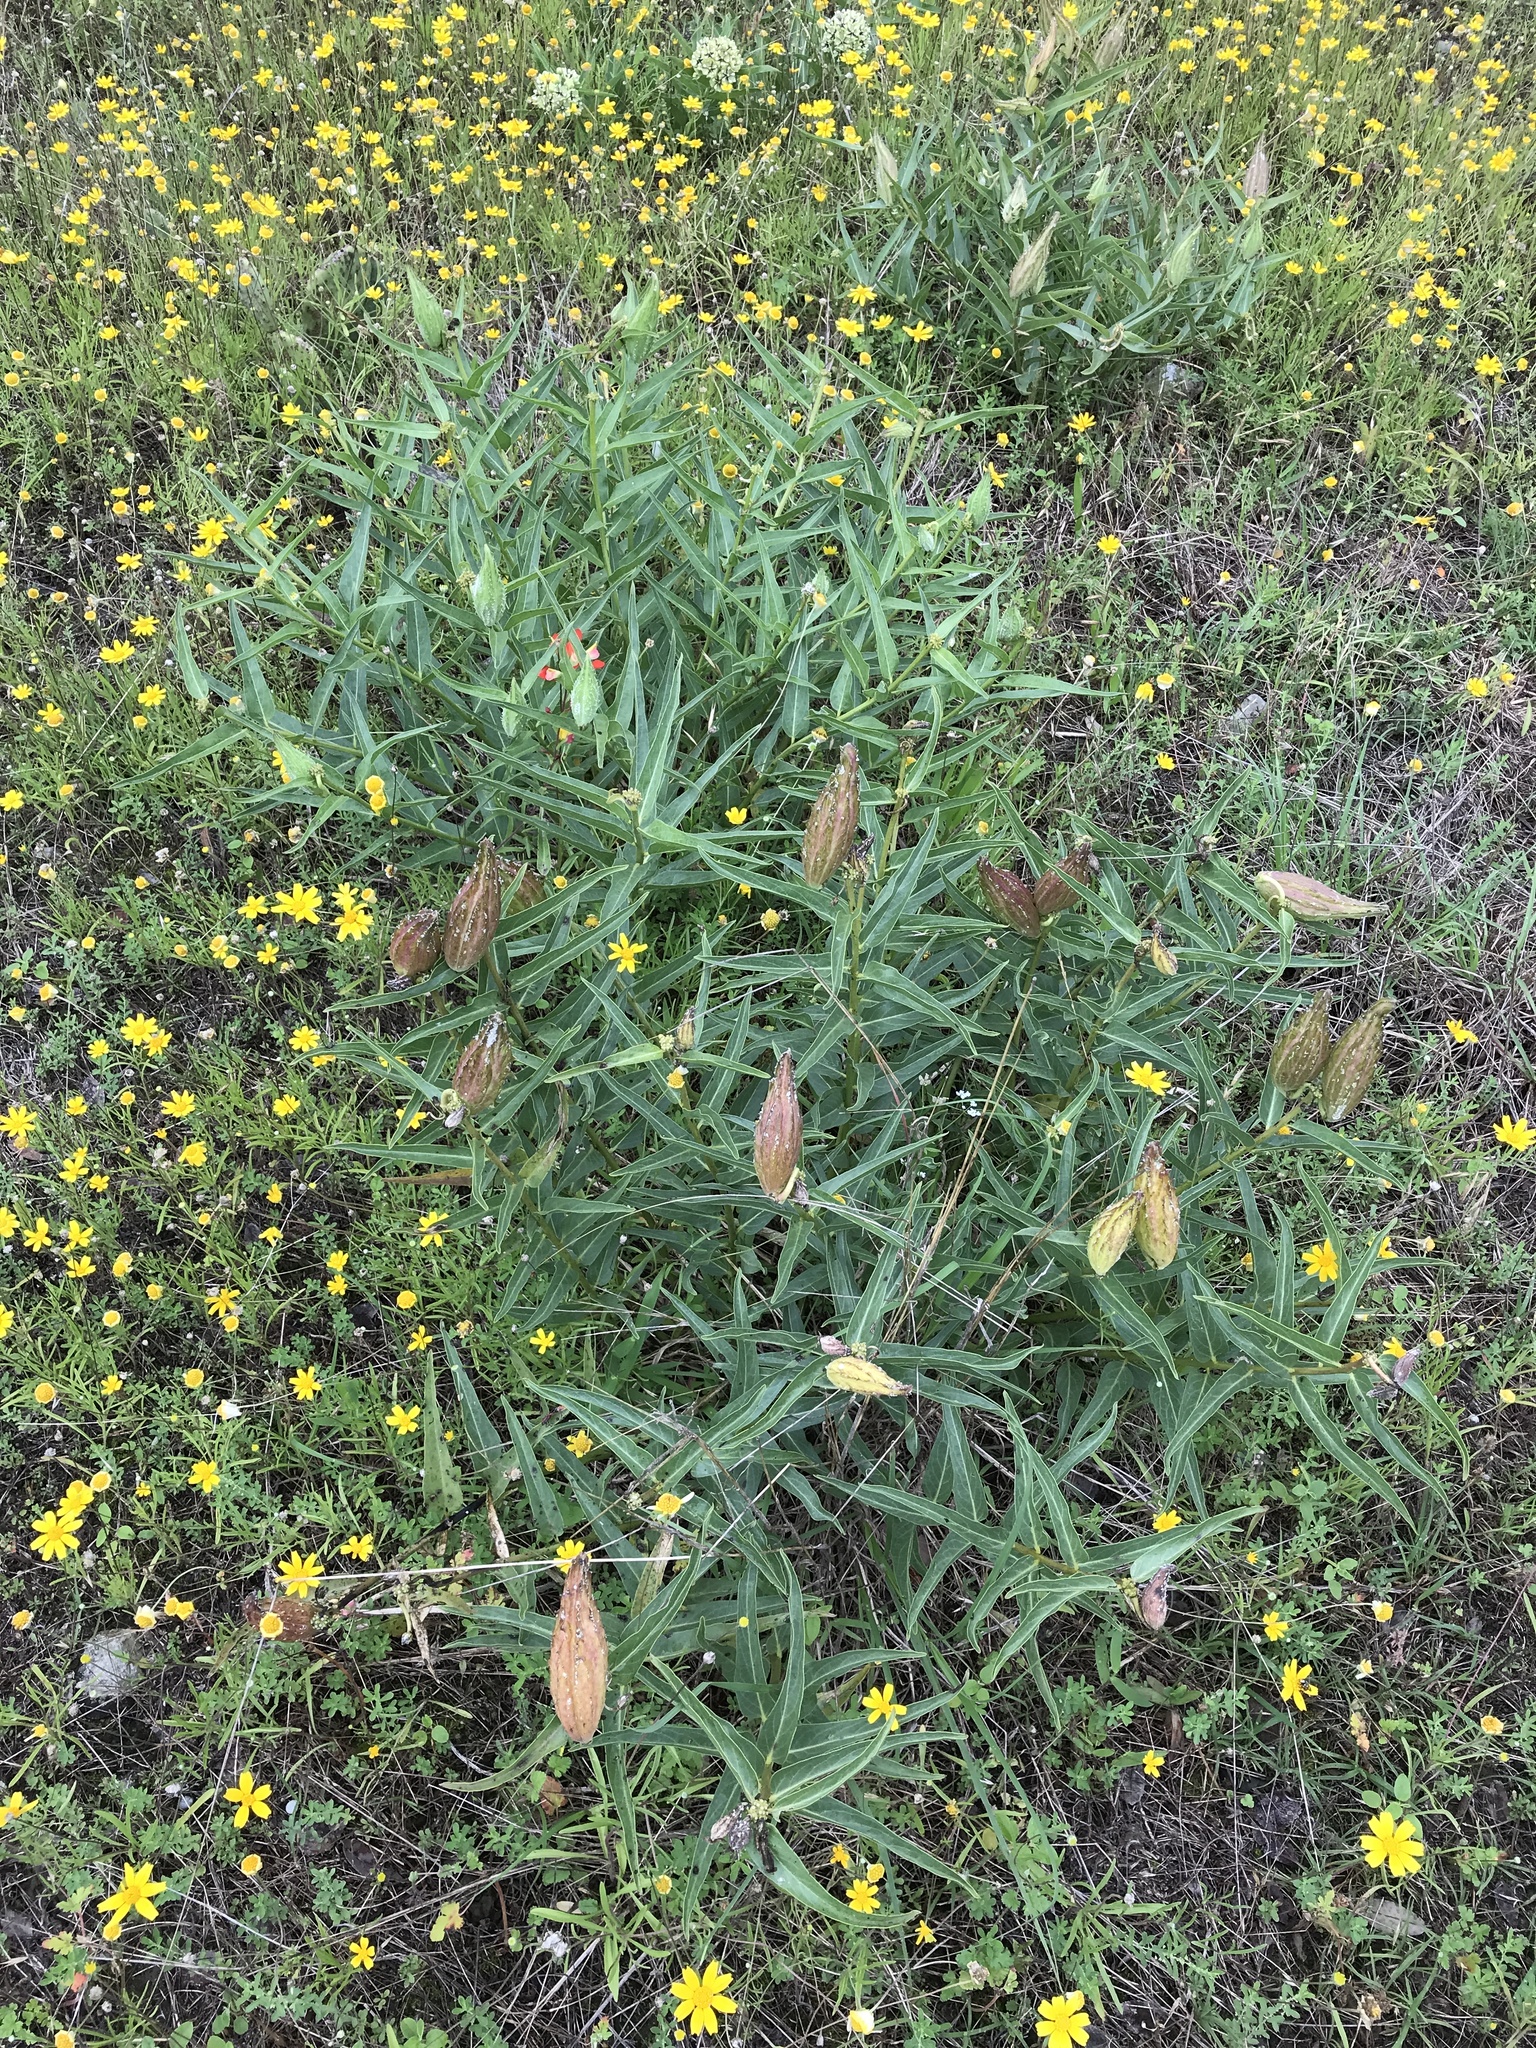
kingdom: Plantae
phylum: Tracheophyta
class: Magnoliopsida
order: Gentianales
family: Apocynaceae
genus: Asclepias
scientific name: Asclepias asperula
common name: Antelope horns
